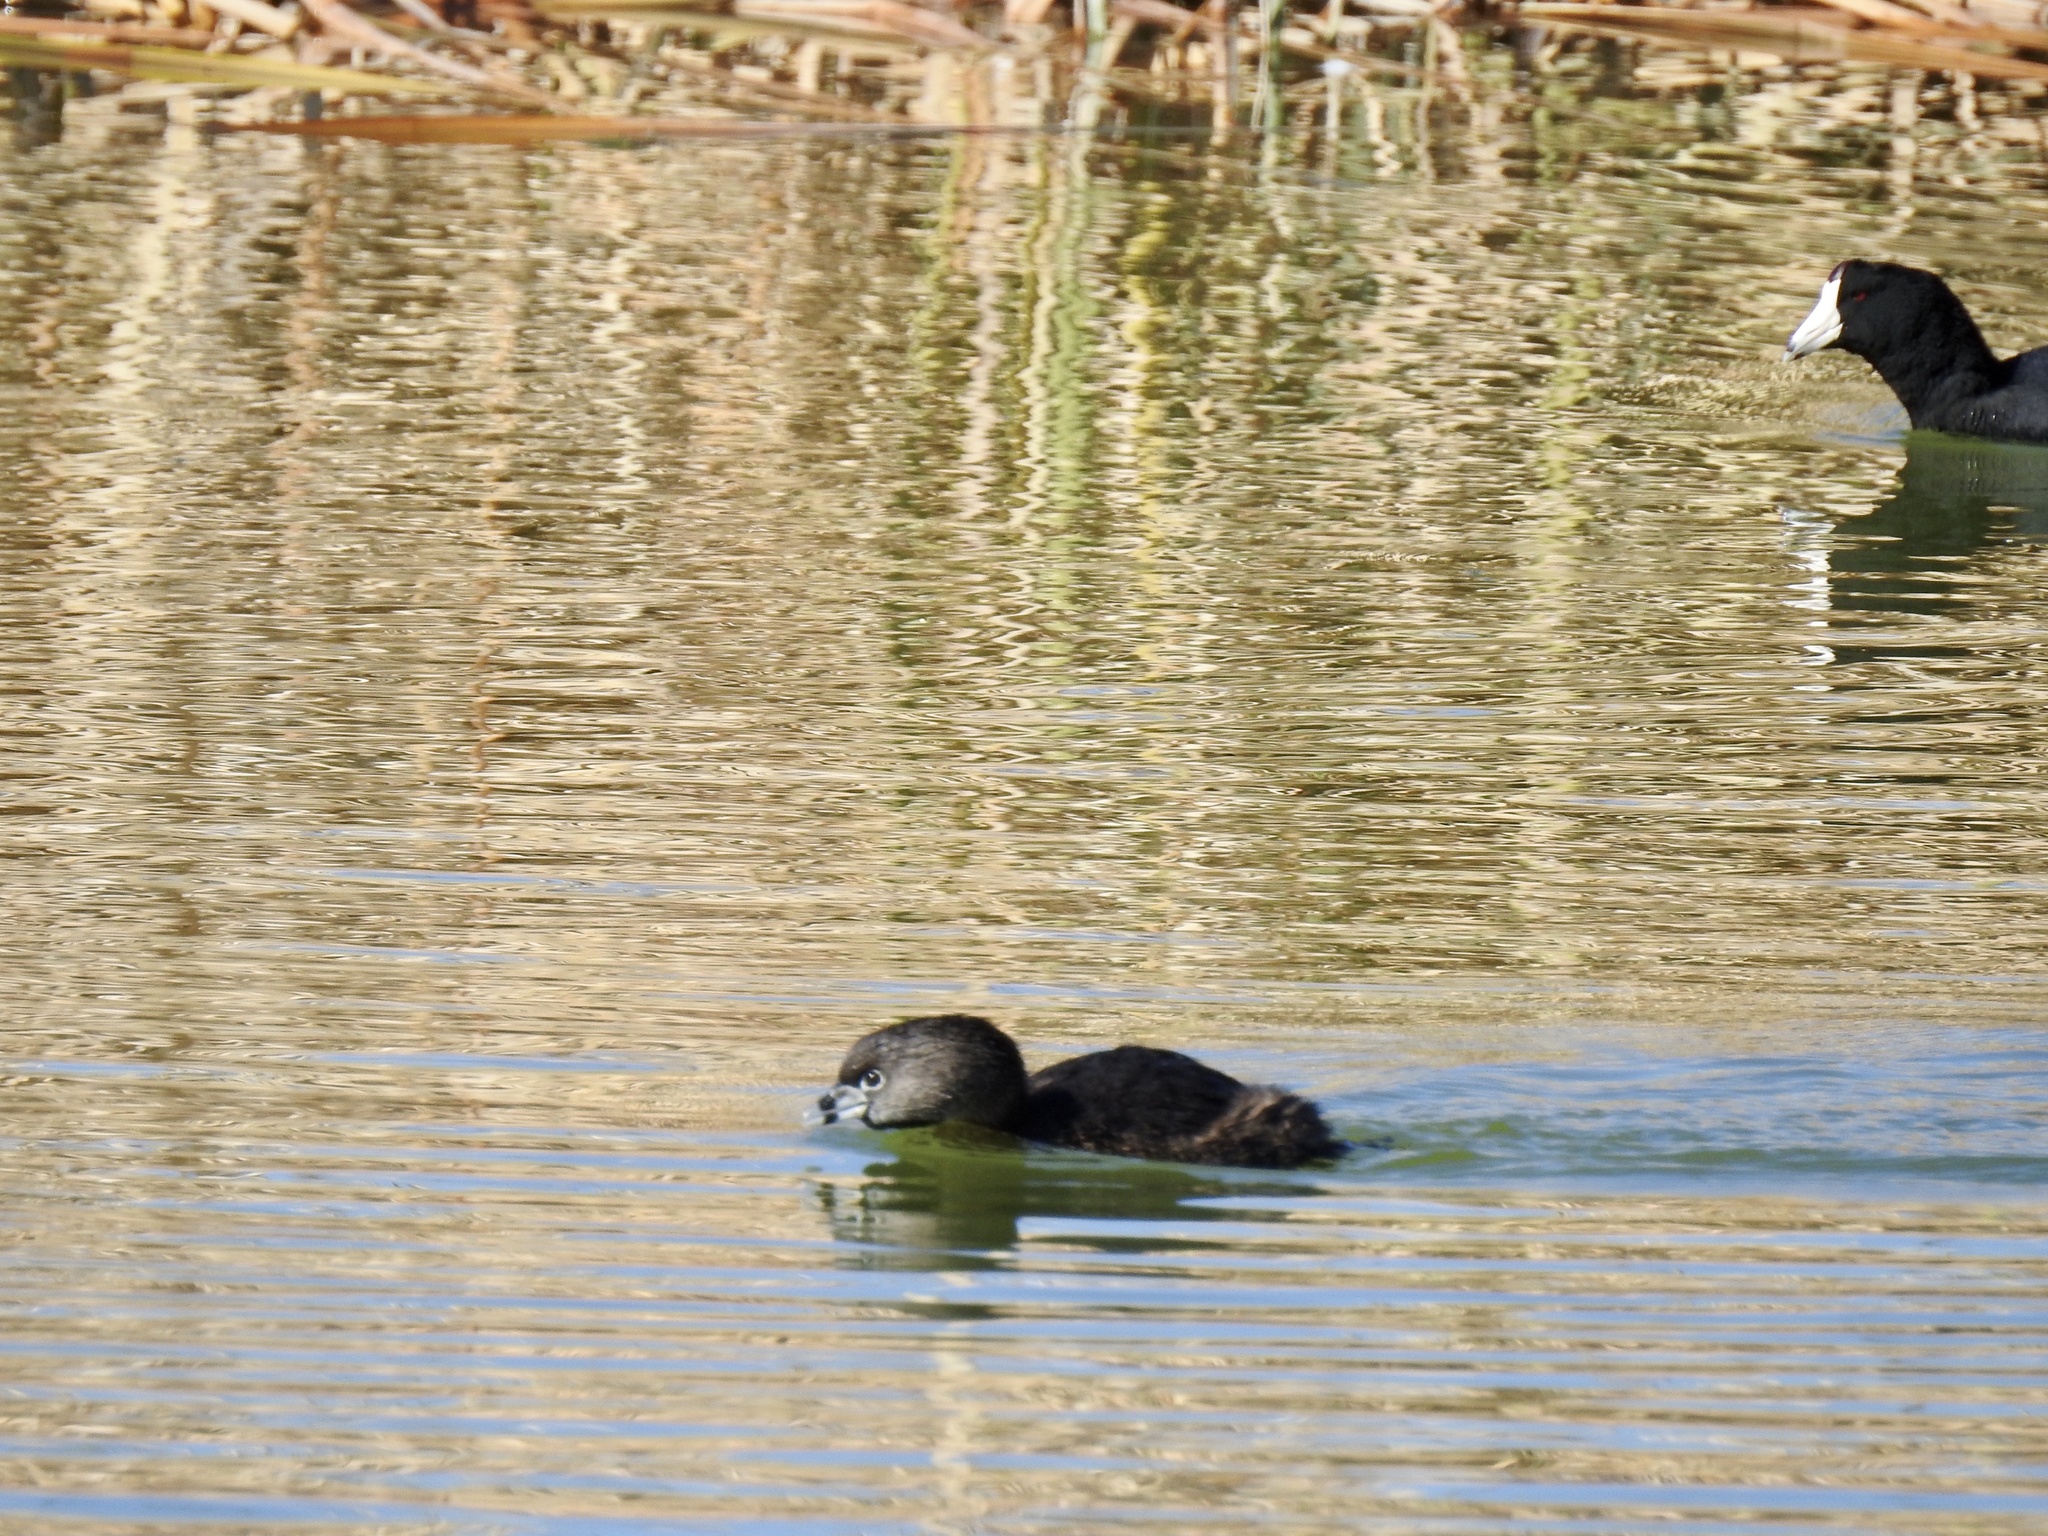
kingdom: Animalia
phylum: Chordata
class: Aves
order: Podicipediformes
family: Podicipedidae
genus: Podilymbus
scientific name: Podilymbus podiceps
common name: Pied-billed grebe
